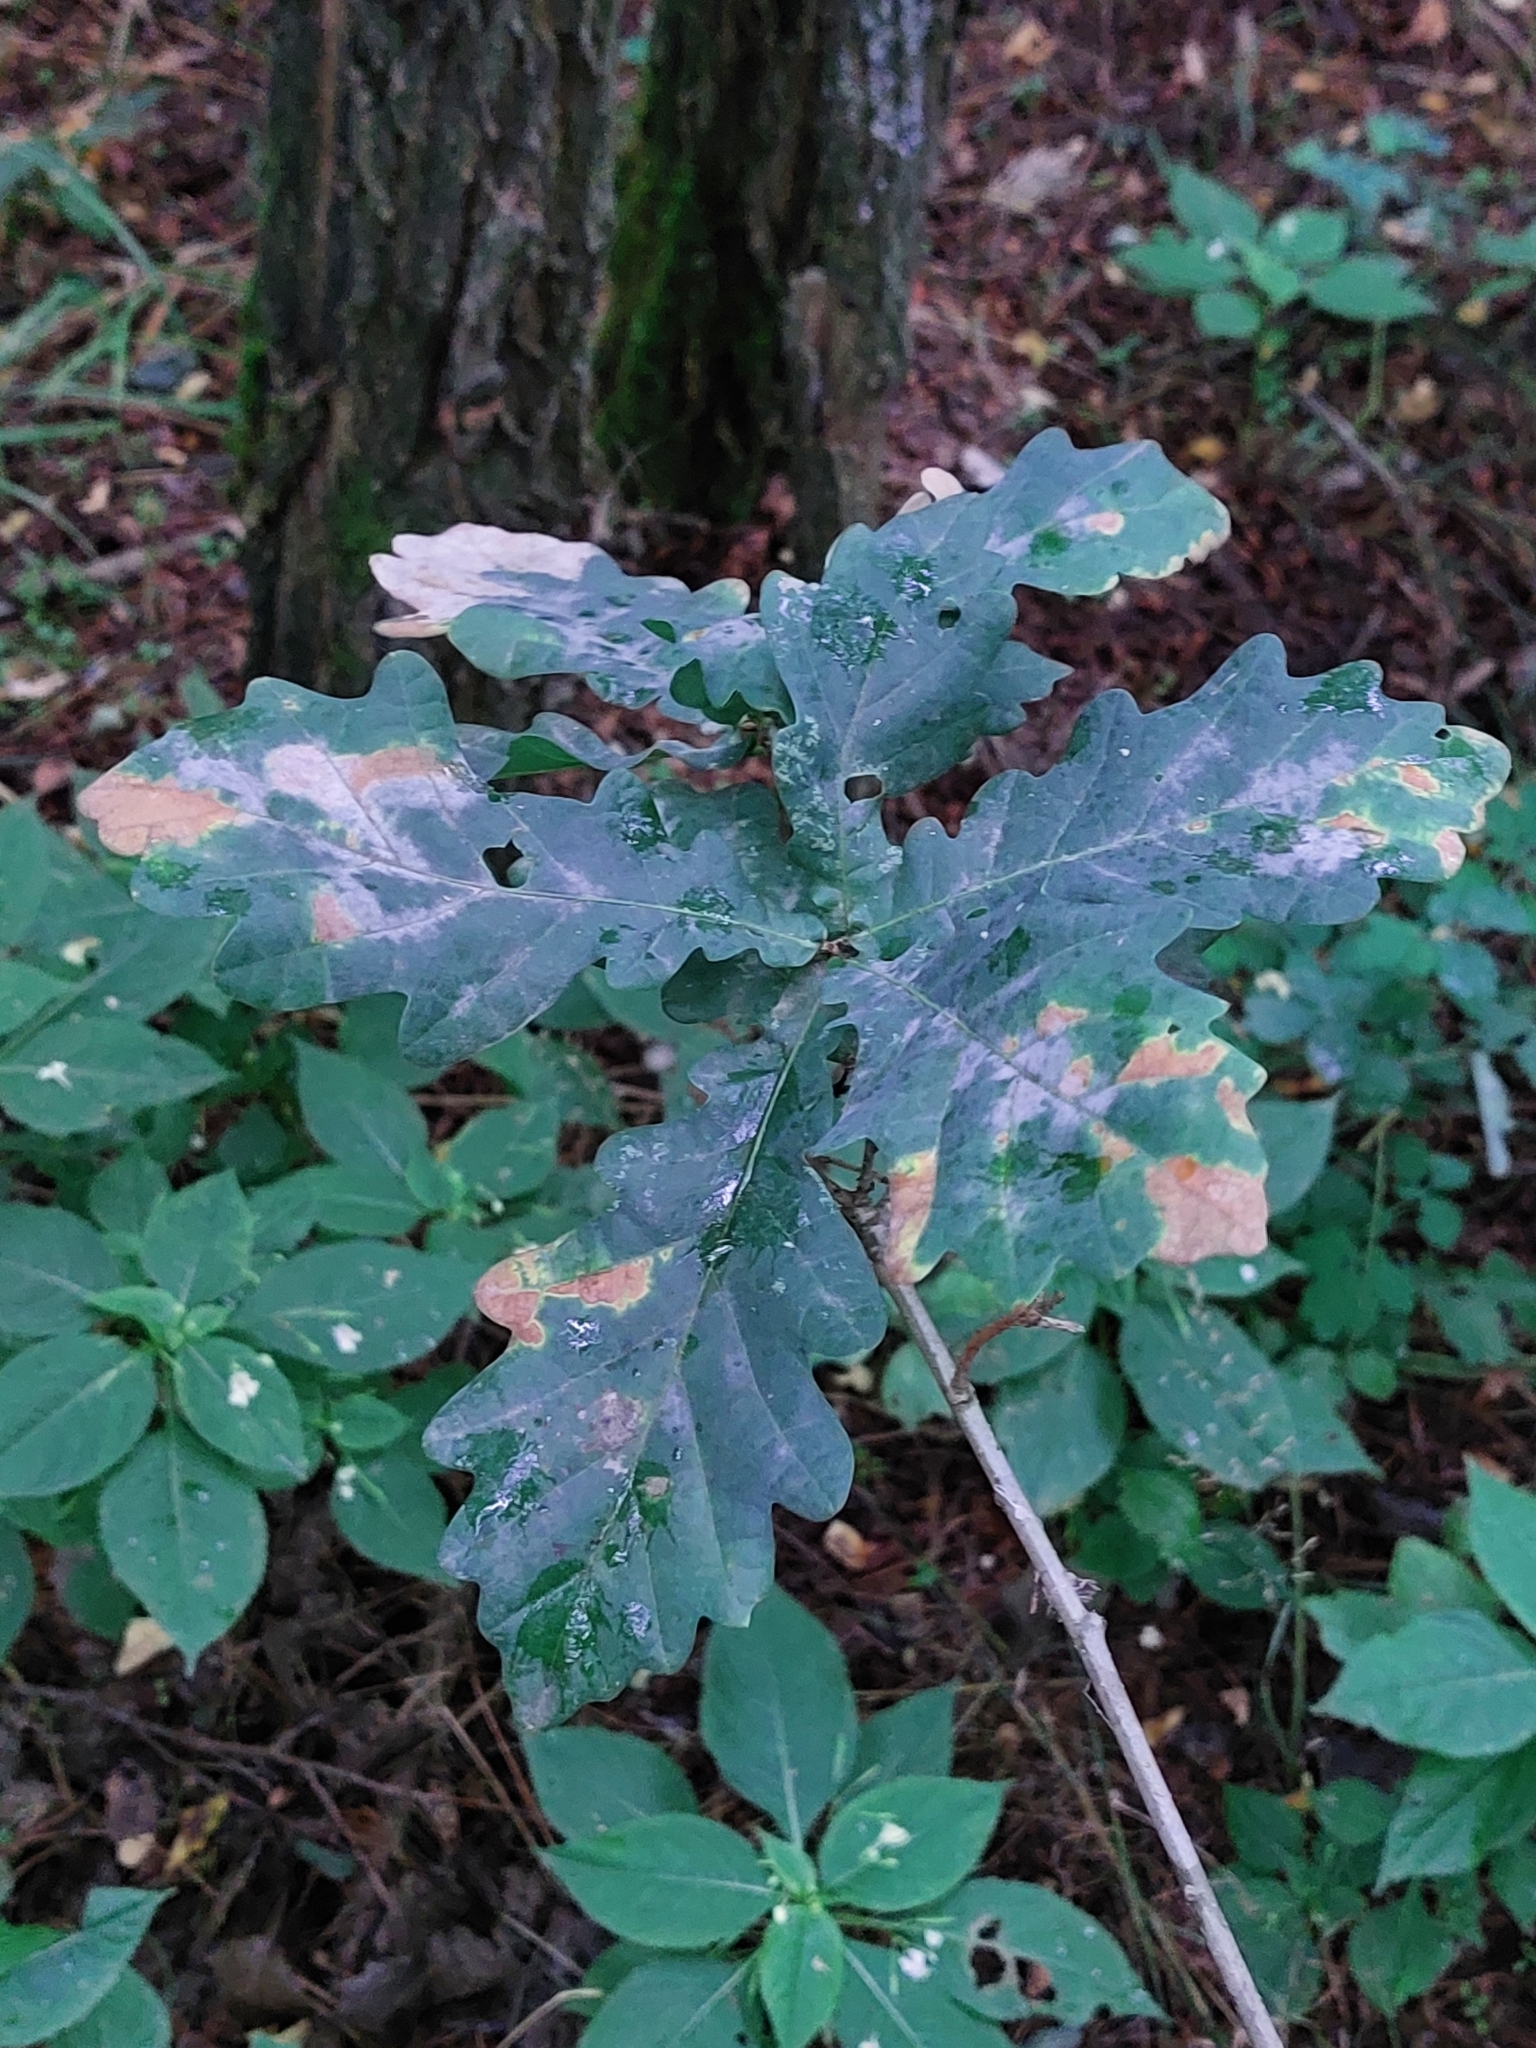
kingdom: Plantae
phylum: Tracheophyta
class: Magnoliopsida
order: Fagales
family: Fagaceae
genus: Quercus
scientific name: Quercus robur
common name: Pedunculate oak
